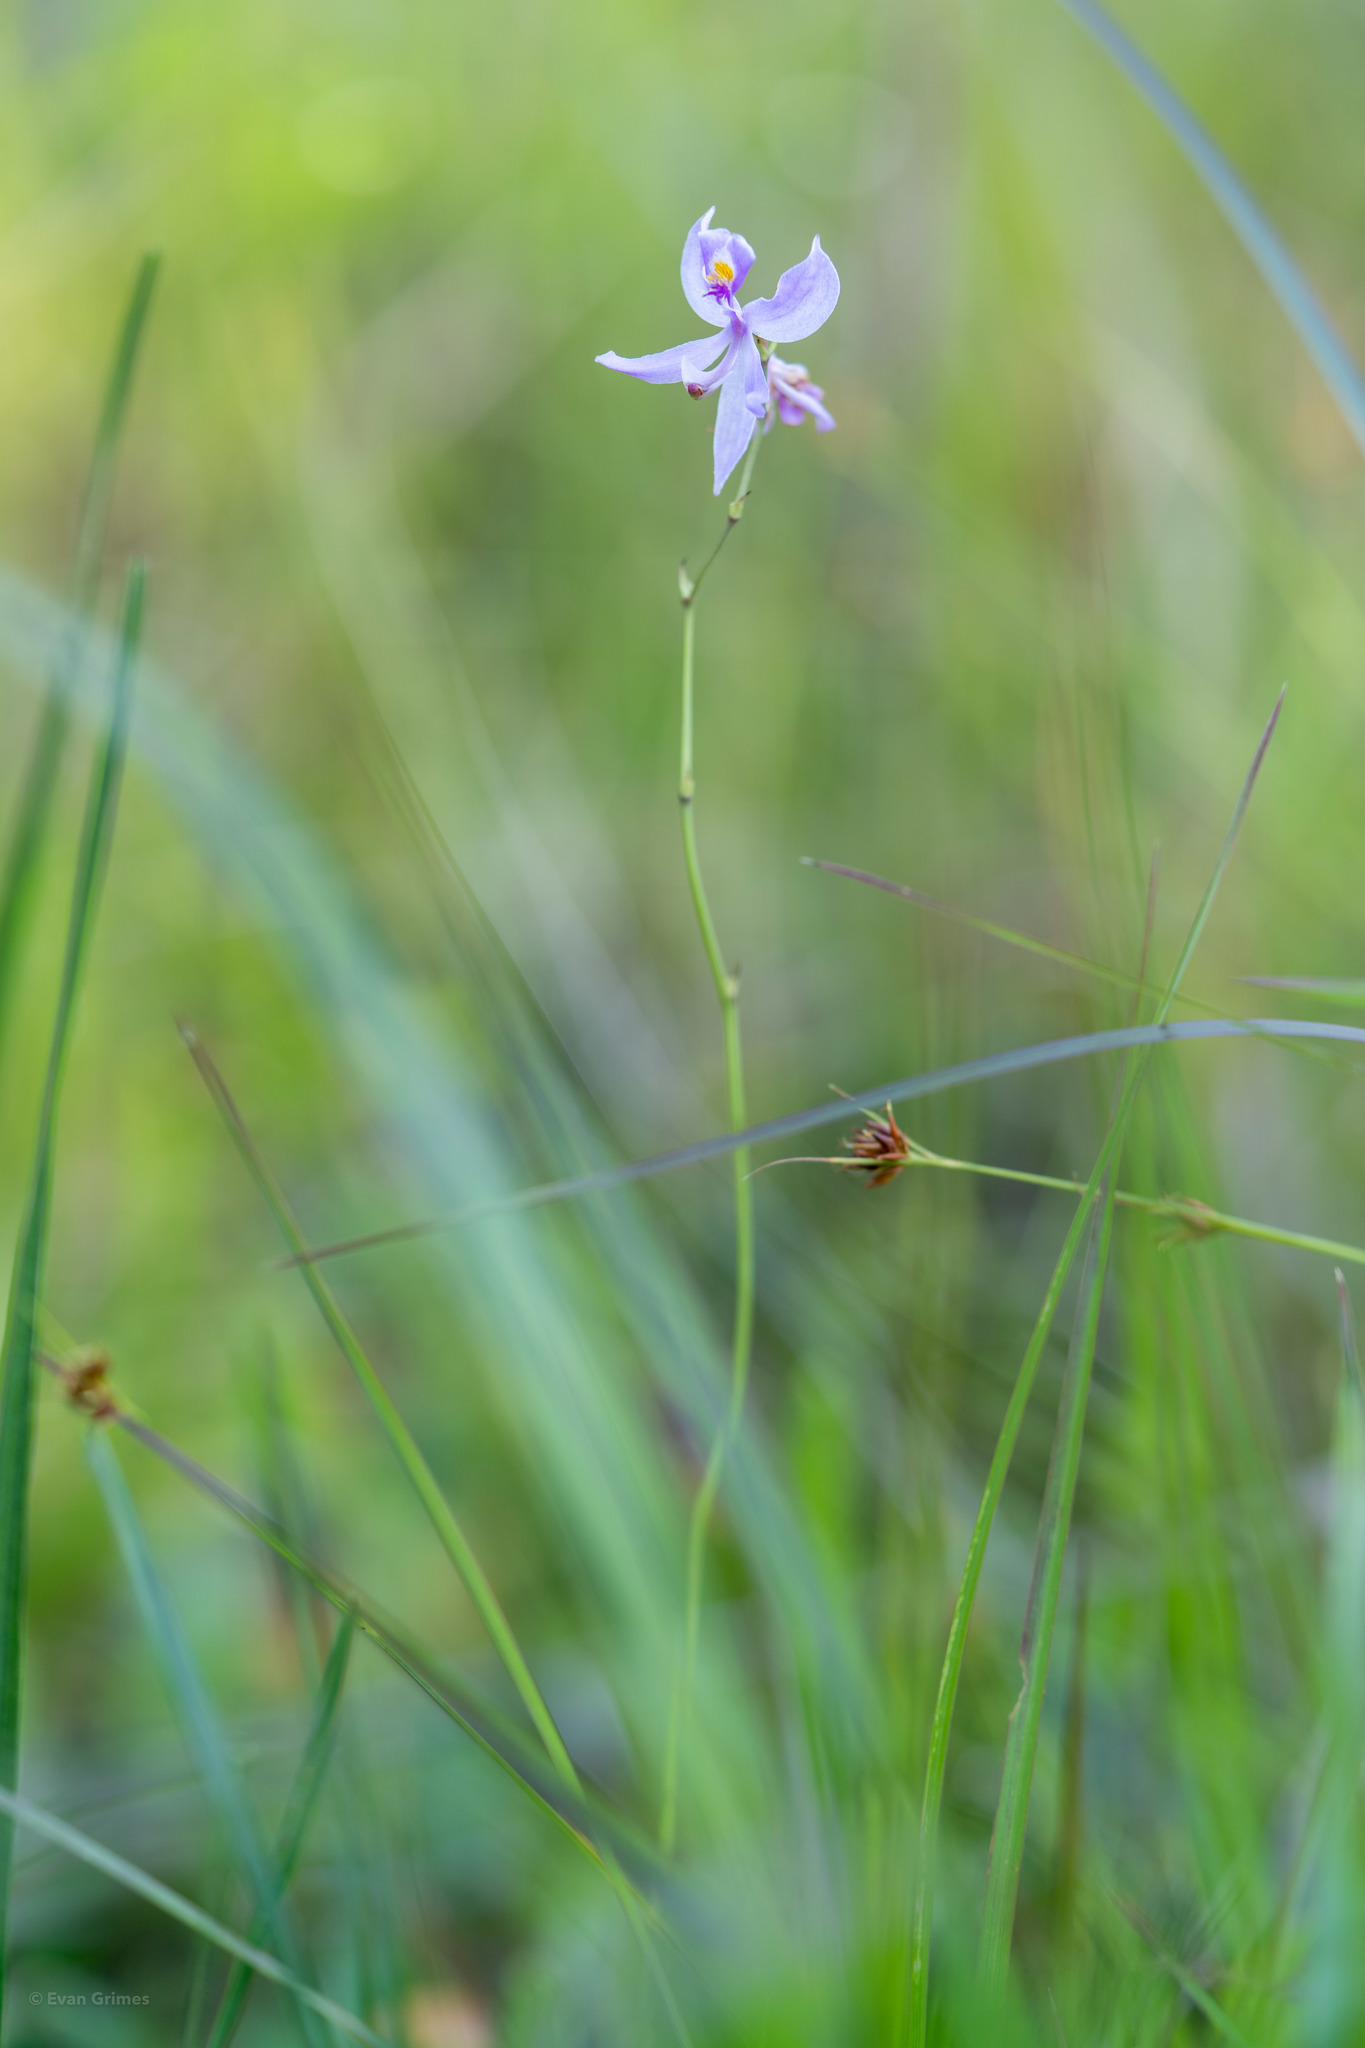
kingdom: Plantae
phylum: Tracheophyta
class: Liliopsida
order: Asparagales
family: Orchidaceae
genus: Calopogon
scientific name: Calopogon pallidus
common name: Pale grasspink
